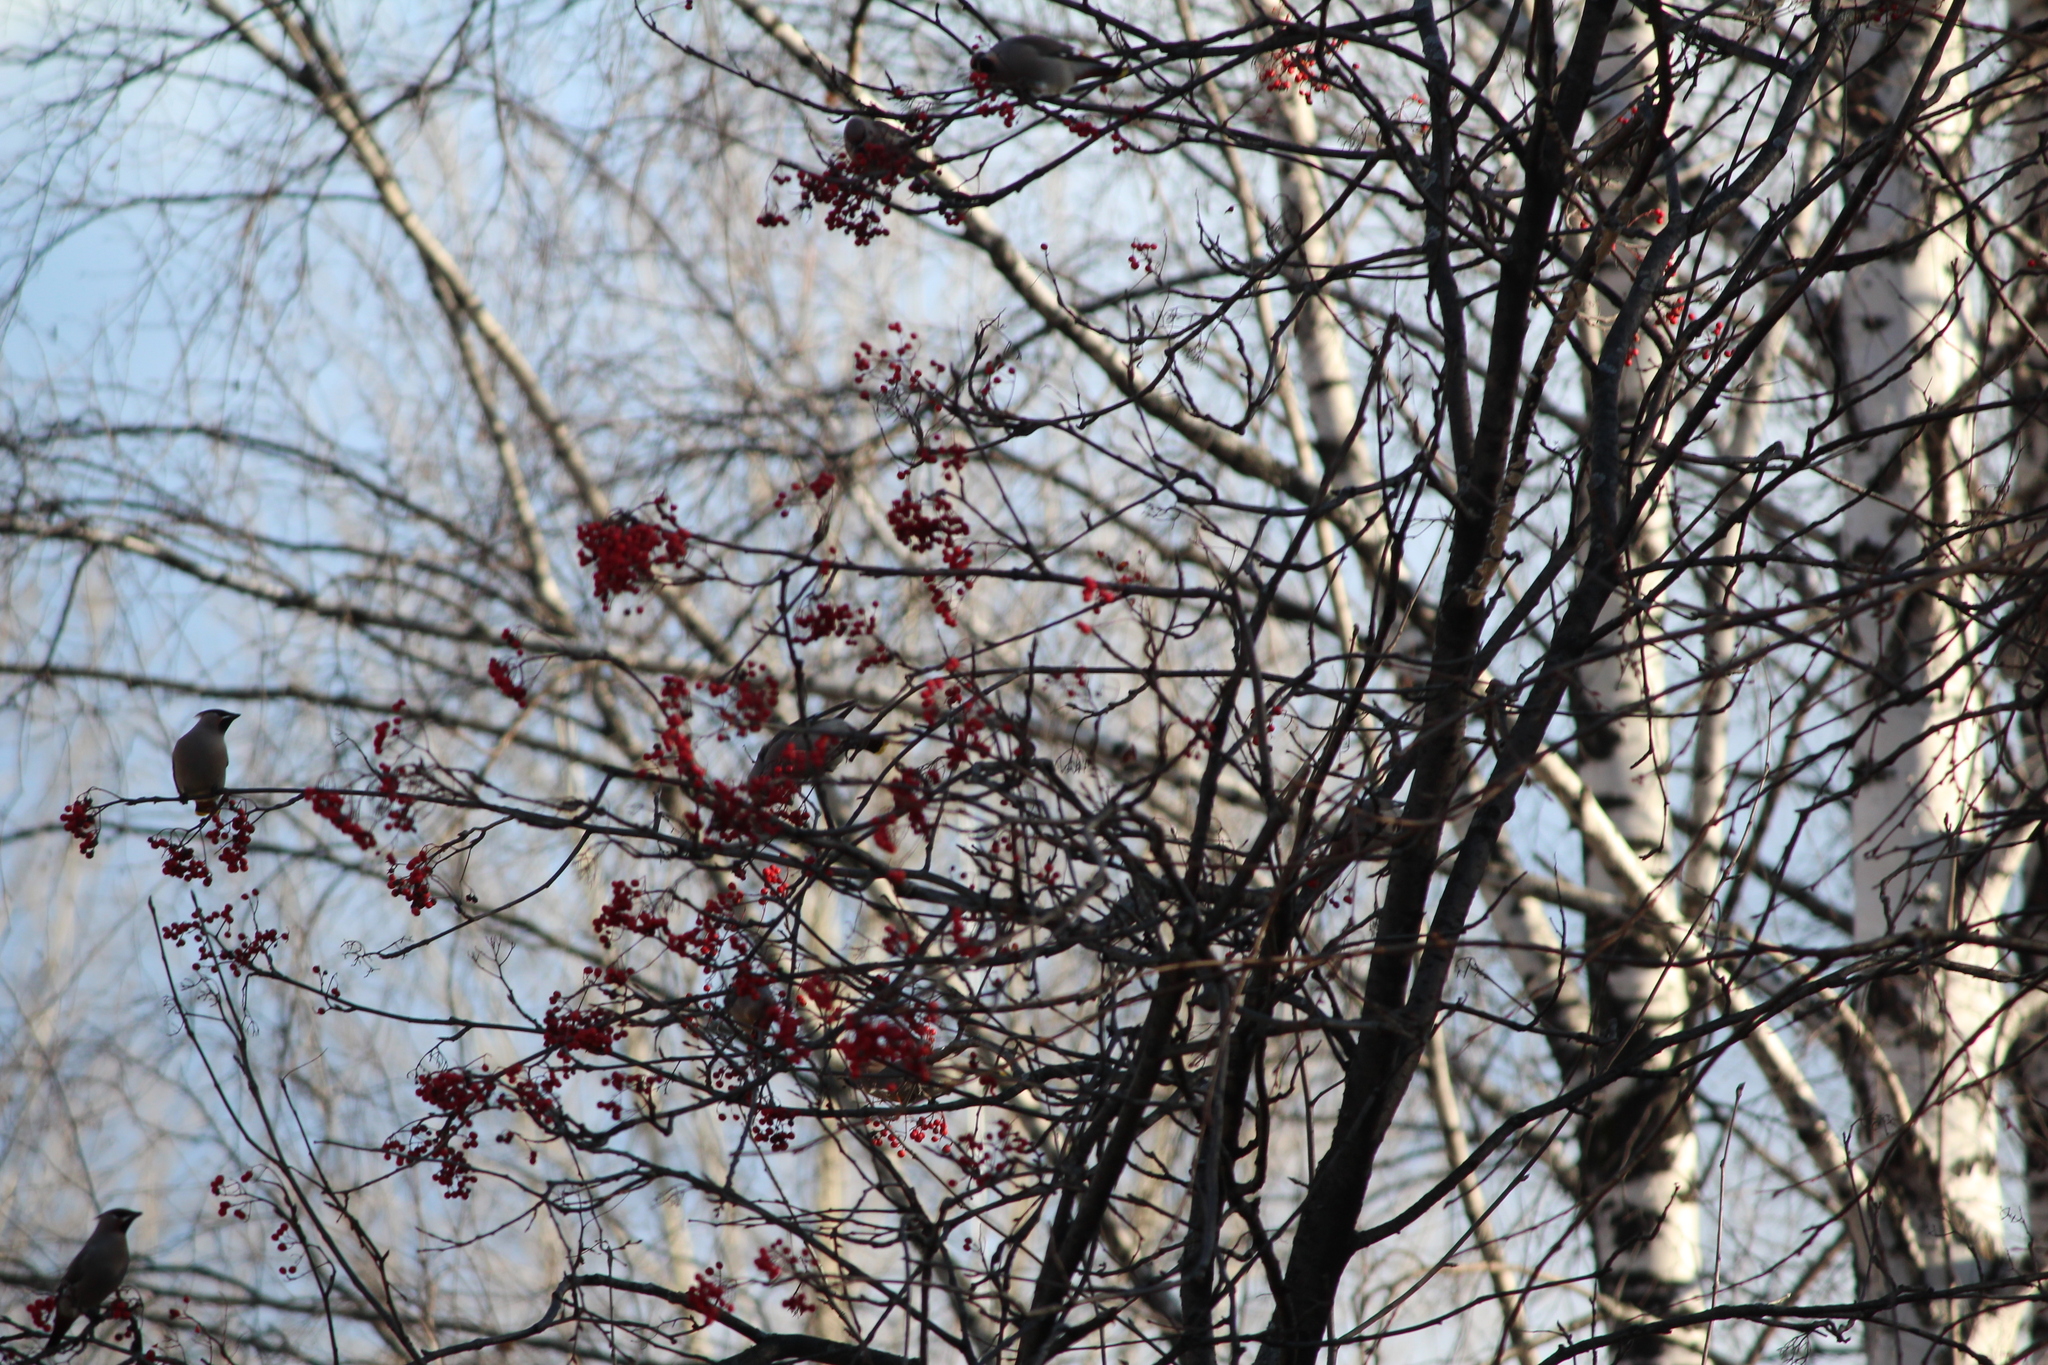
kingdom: Animalia
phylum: Chordata
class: Aves
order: Passeriformes
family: Bombycillidae
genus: Bombycilla
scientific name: Bombycilla garrulus
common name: Bohemian waxwing
